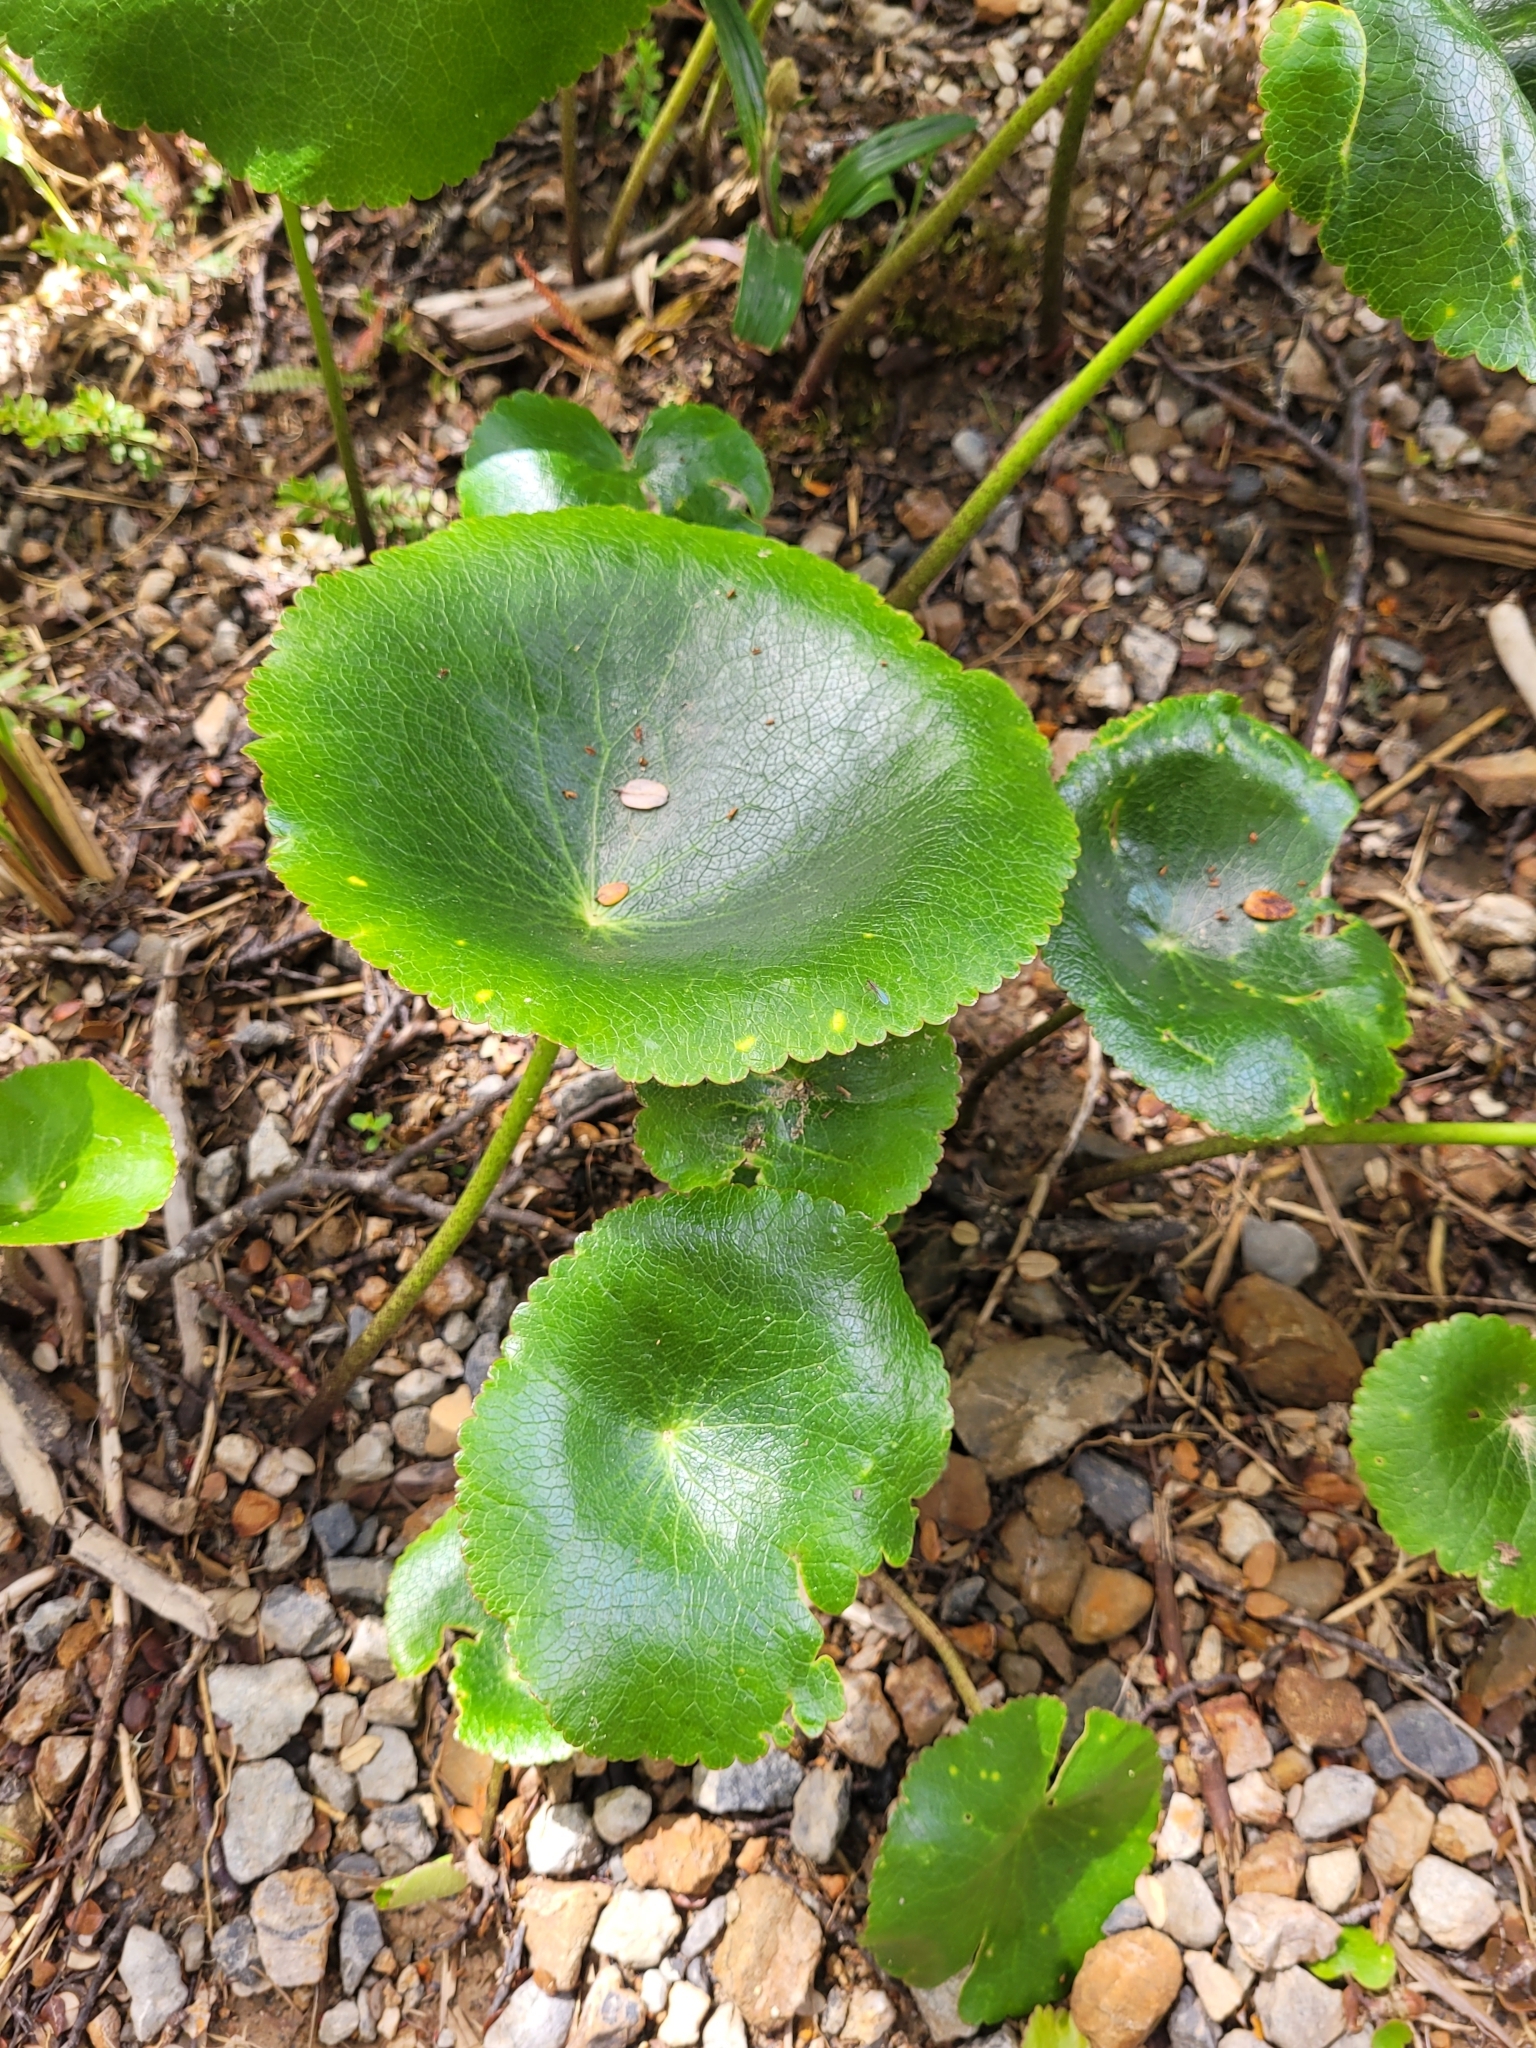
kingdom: Plantae
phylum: Tracheophyta
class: Magnoliopsida
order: Ranunculales
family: Ranunculaceae
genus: Ranunculus
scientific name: Ranunculus lyallii
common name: Mountain-lily
